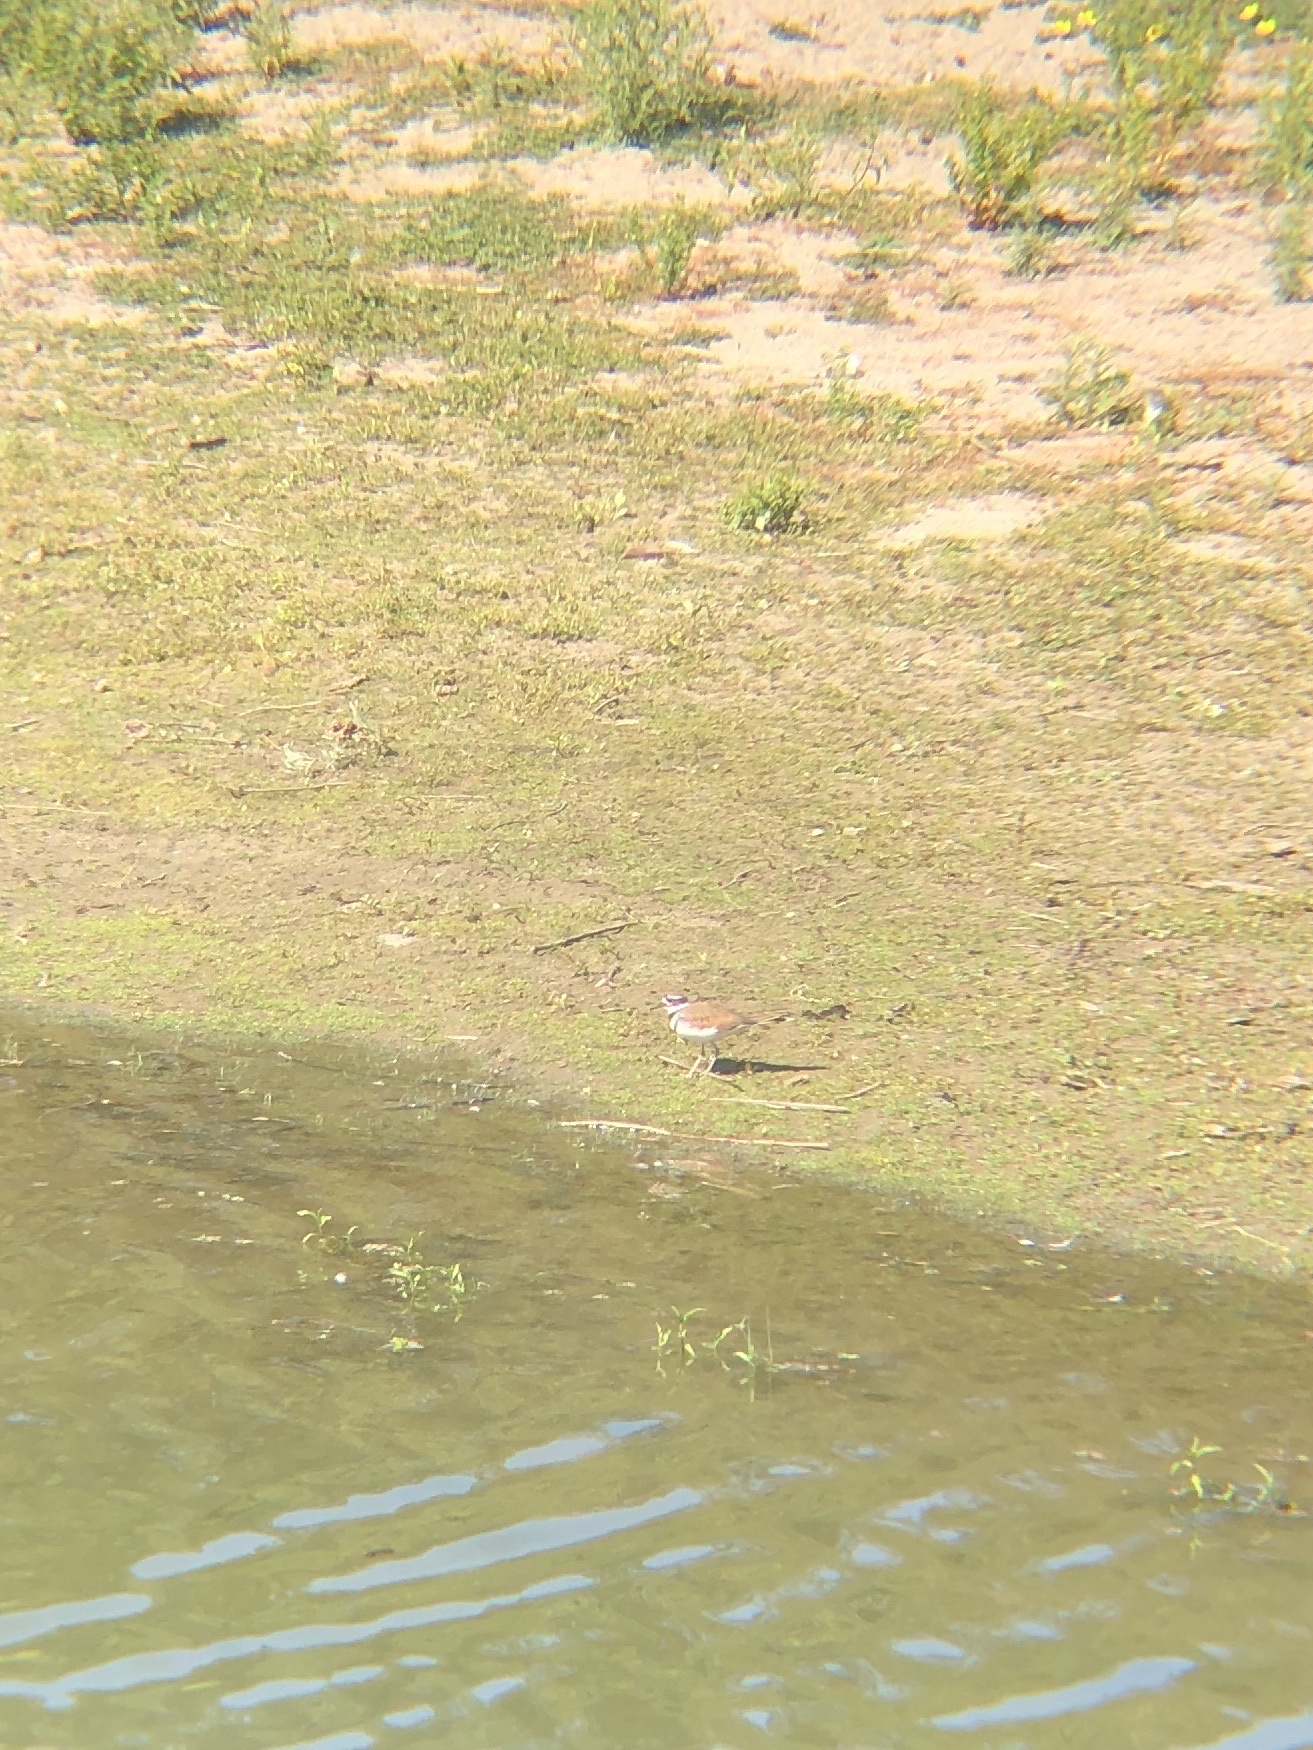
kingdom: Animalia
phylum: Chordata
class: Aves
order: Charadriiformes
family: Charadriidae
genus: Charadrius
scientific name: Charadrius vociferus
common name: Killdeer
